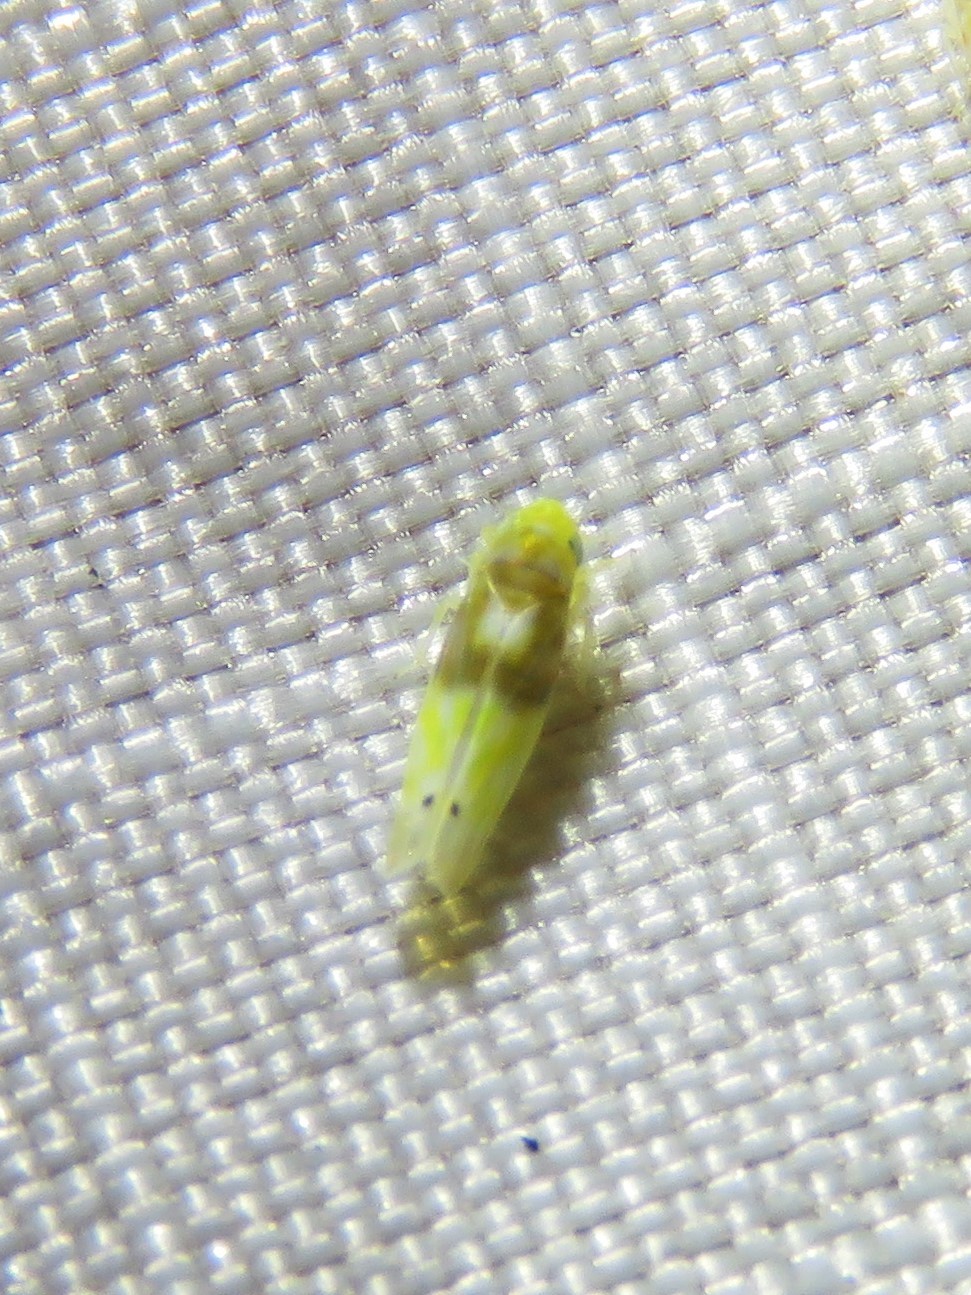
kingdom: Animalia
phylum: Arthropoda
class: Insecta
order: Hemiptera
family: Cicadellidae
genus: Eratoneura
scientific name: Eratoneura affinis
